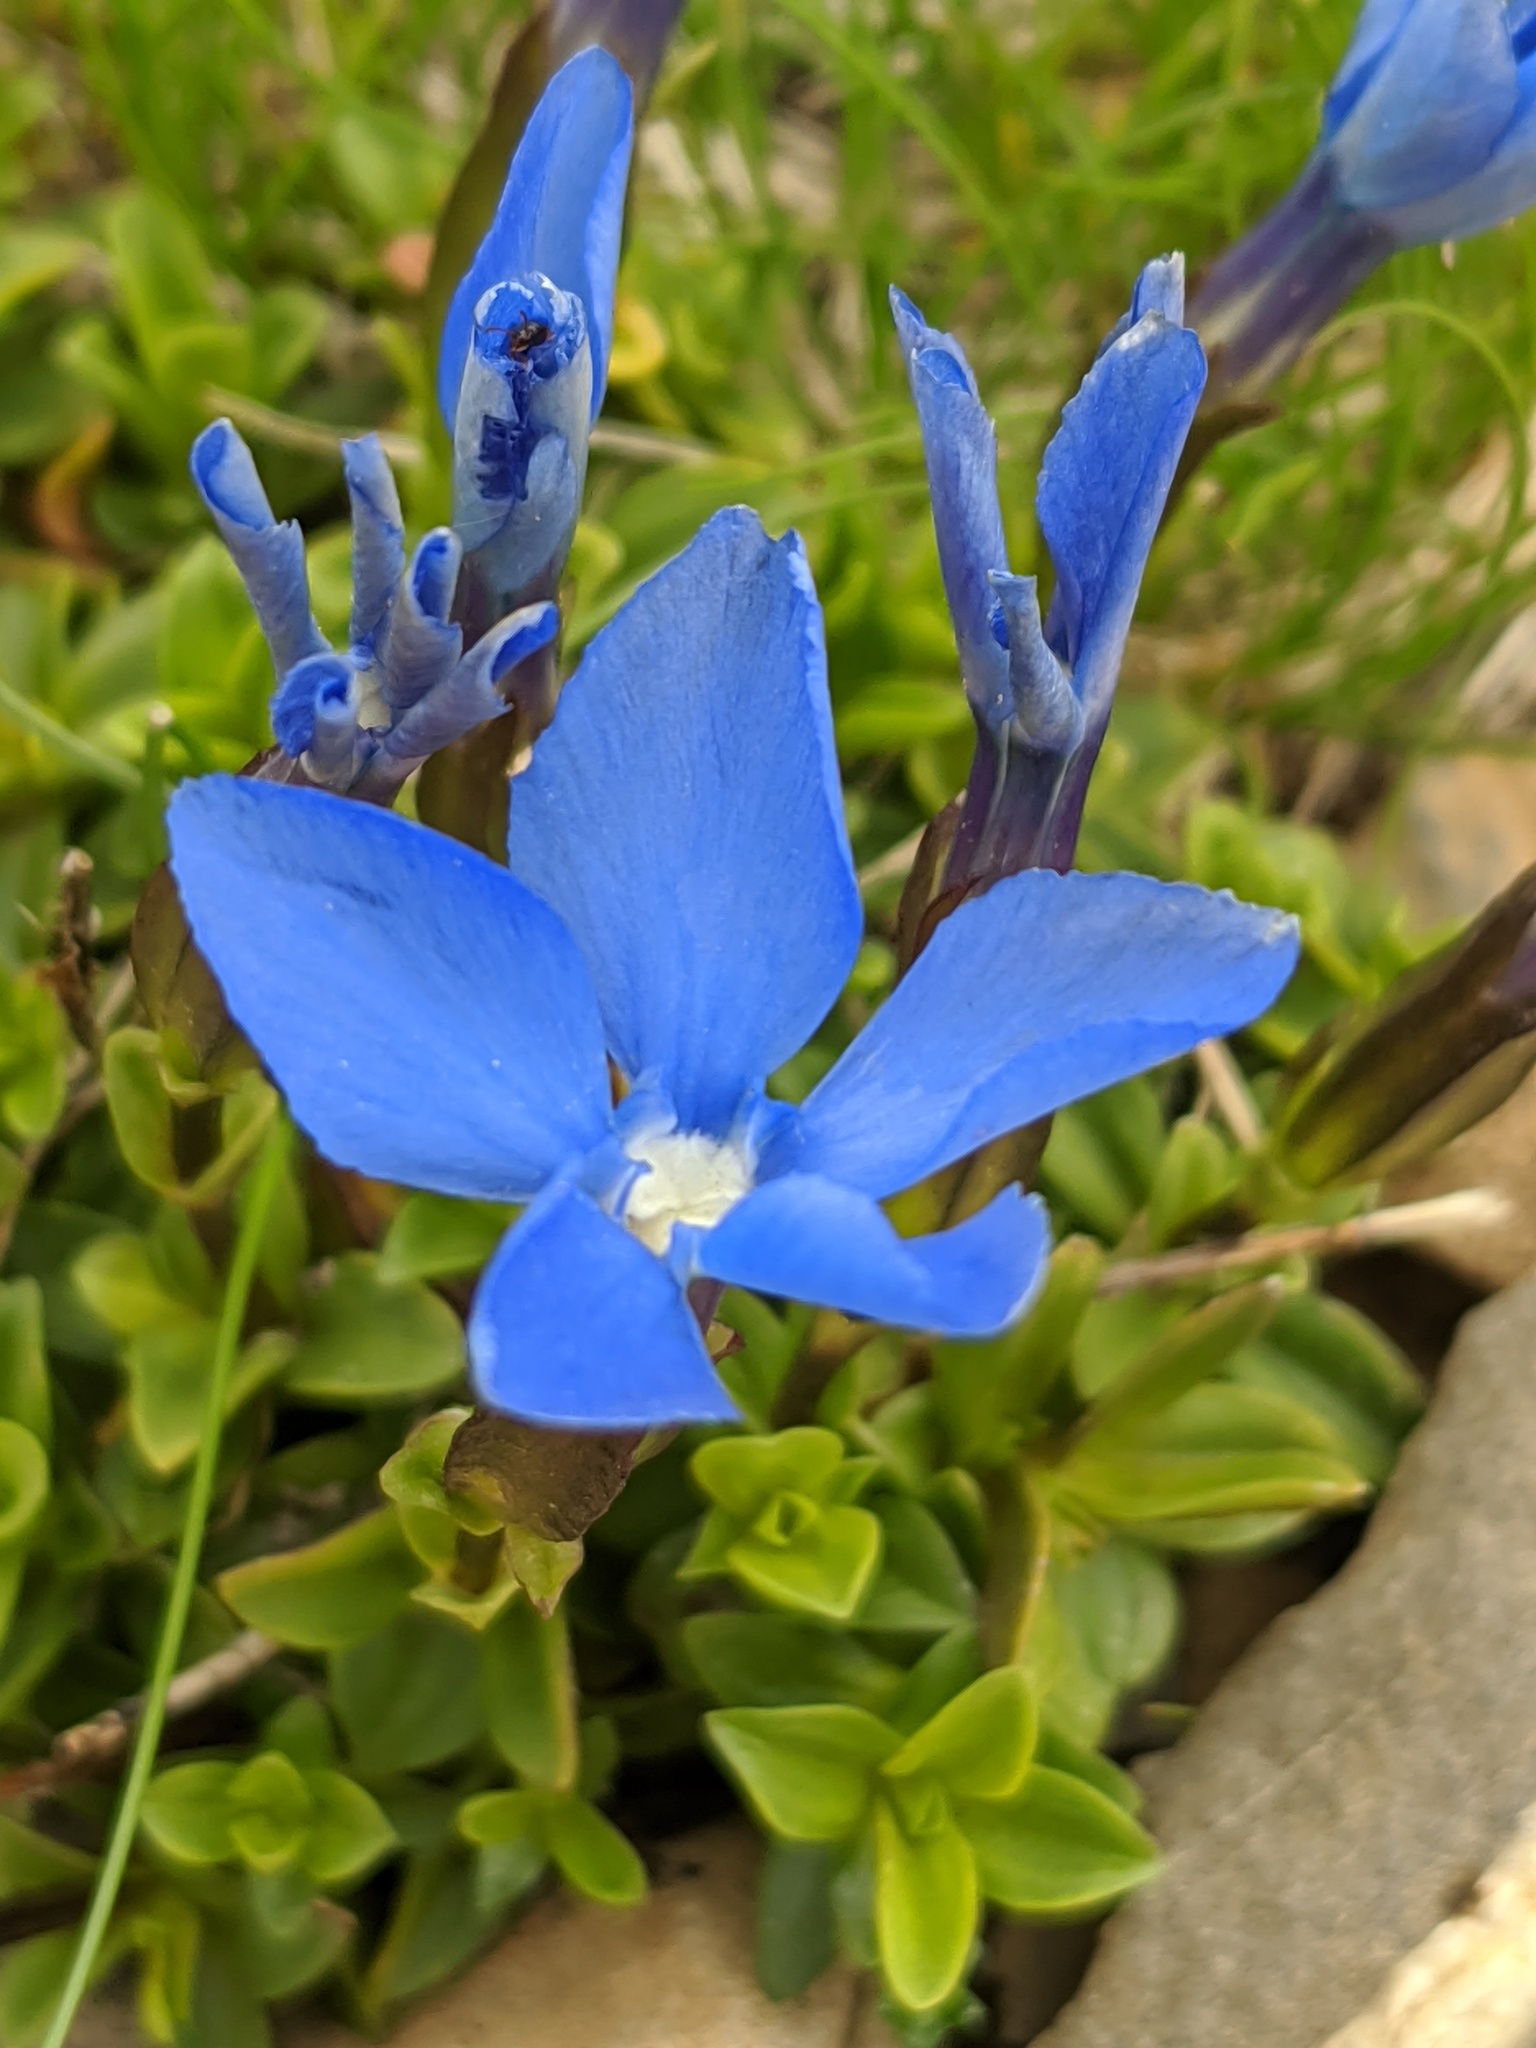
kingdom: Plantae
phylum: Tracheophyta
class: Magnoliopsida
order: Gentianales
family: Gentianaceae
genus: Gentiana
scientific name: Gentiana orbicularis
